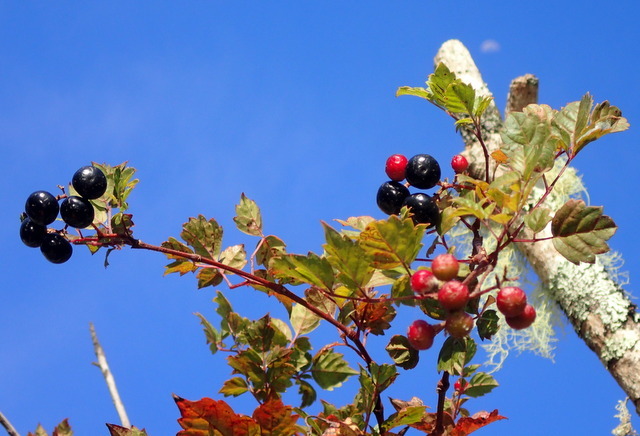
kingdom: Plantae
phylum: Tracheophyta
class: Magnoliopsida
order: Vitales
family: Vitaceae
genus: Nekemias
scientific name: Nekemias arborea
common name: Peppervine
